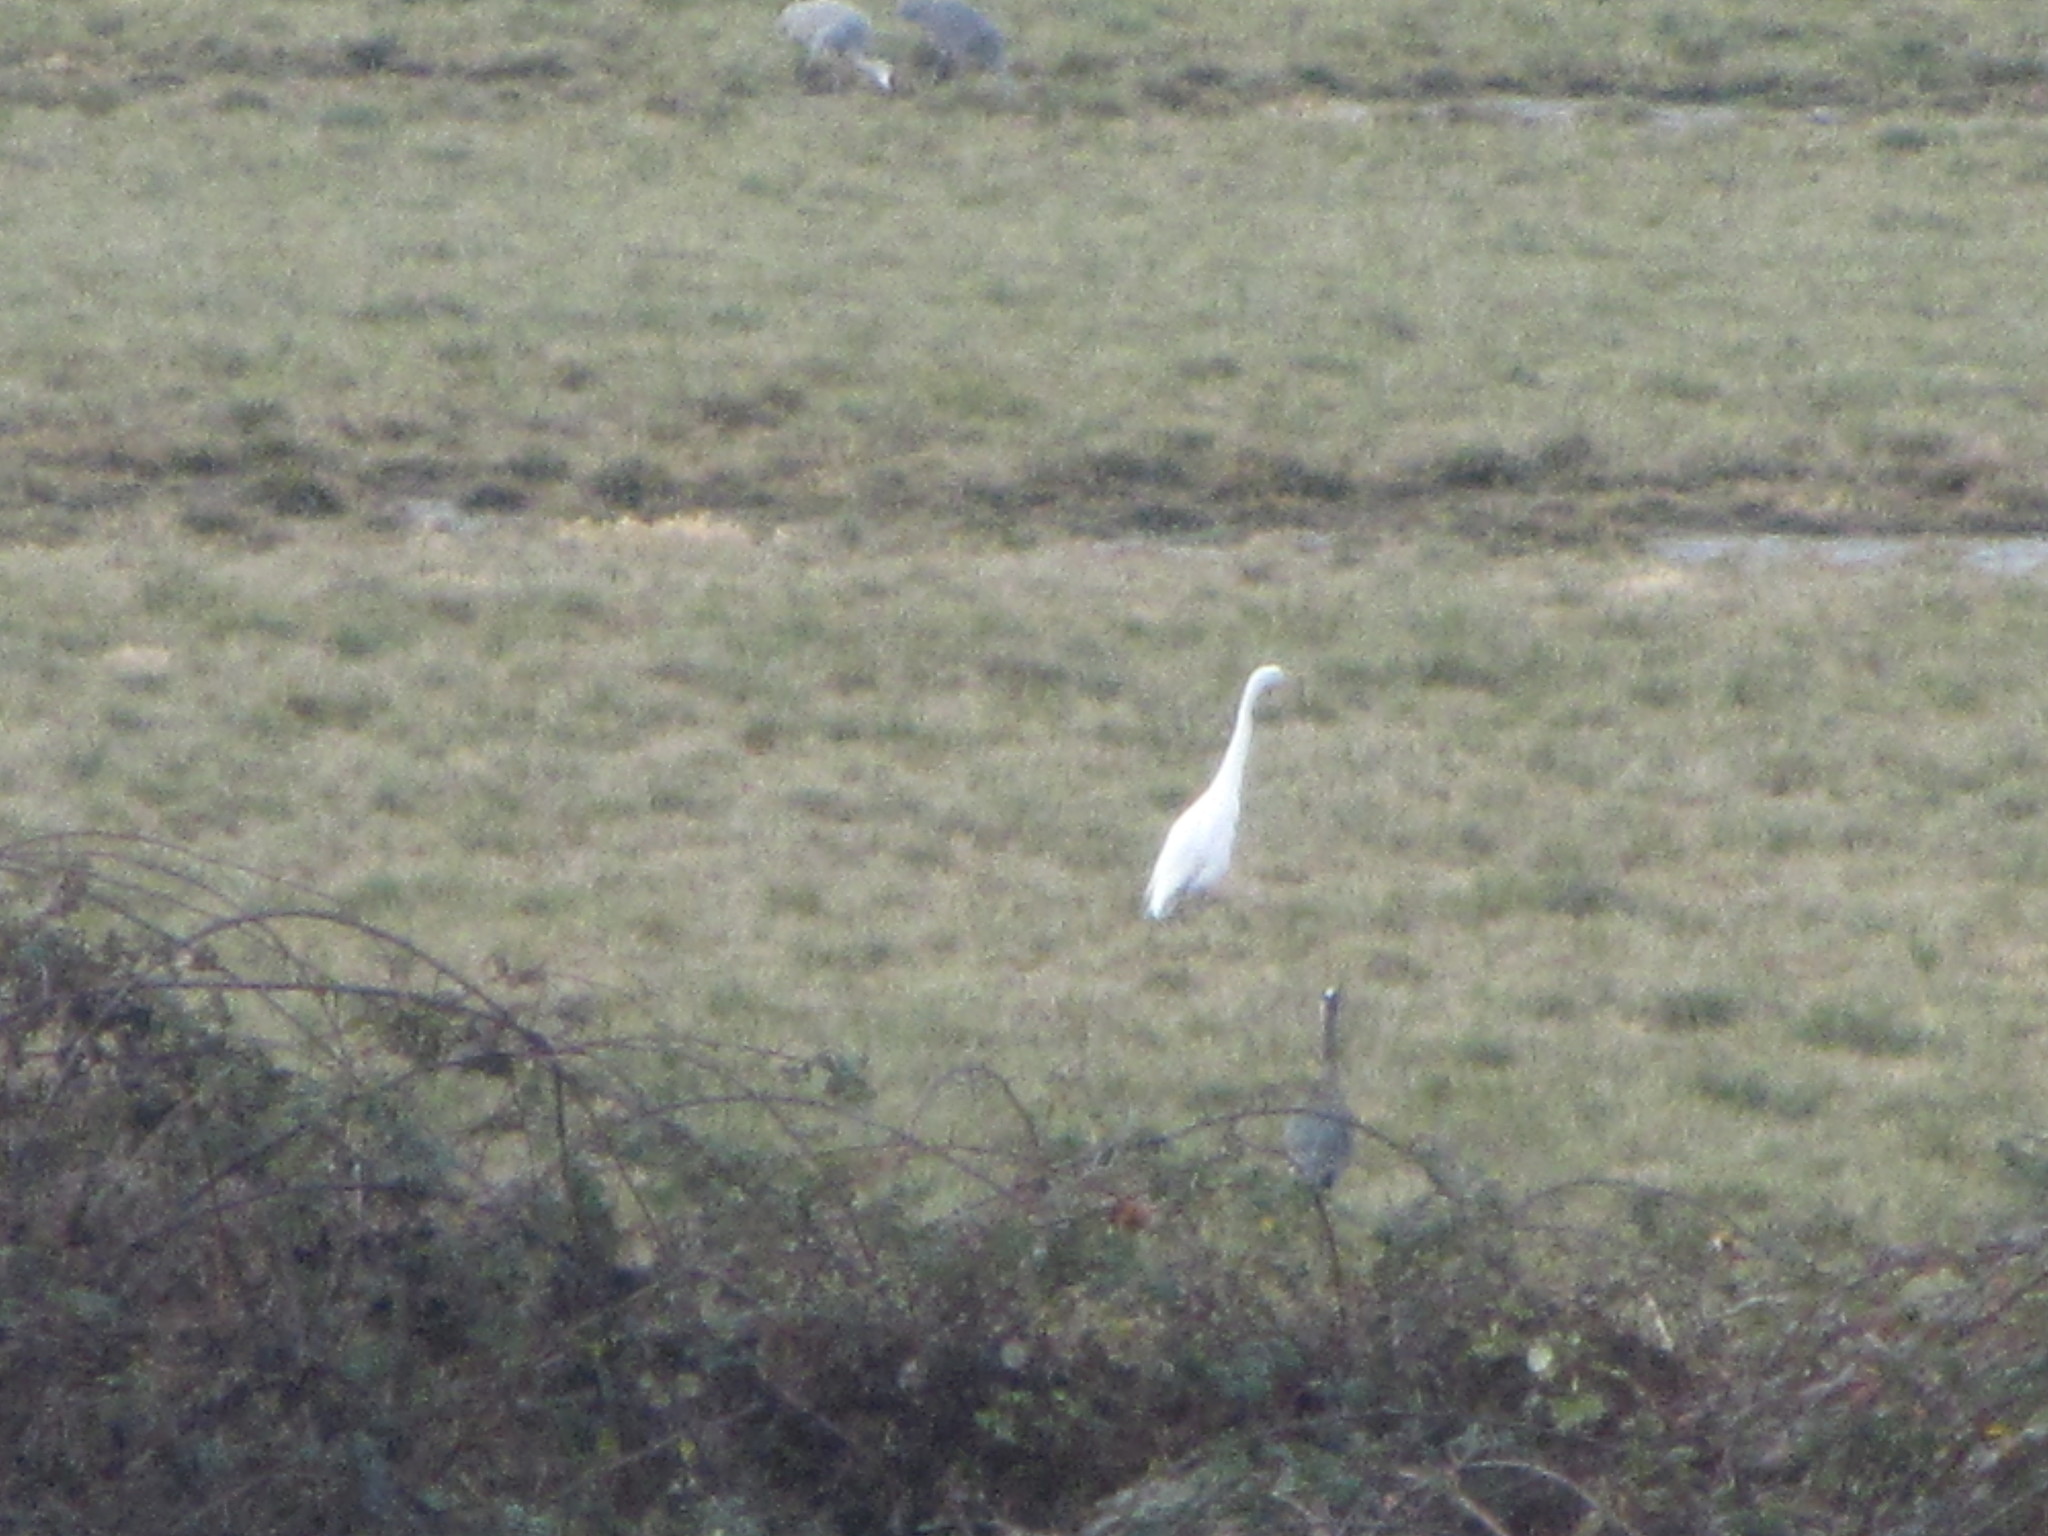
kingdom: Animalia
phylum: Chordata
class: Aves
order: Pelecaniformes
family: Ardeidae
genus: Ardea
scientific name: Ardea alba
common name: Great egret
